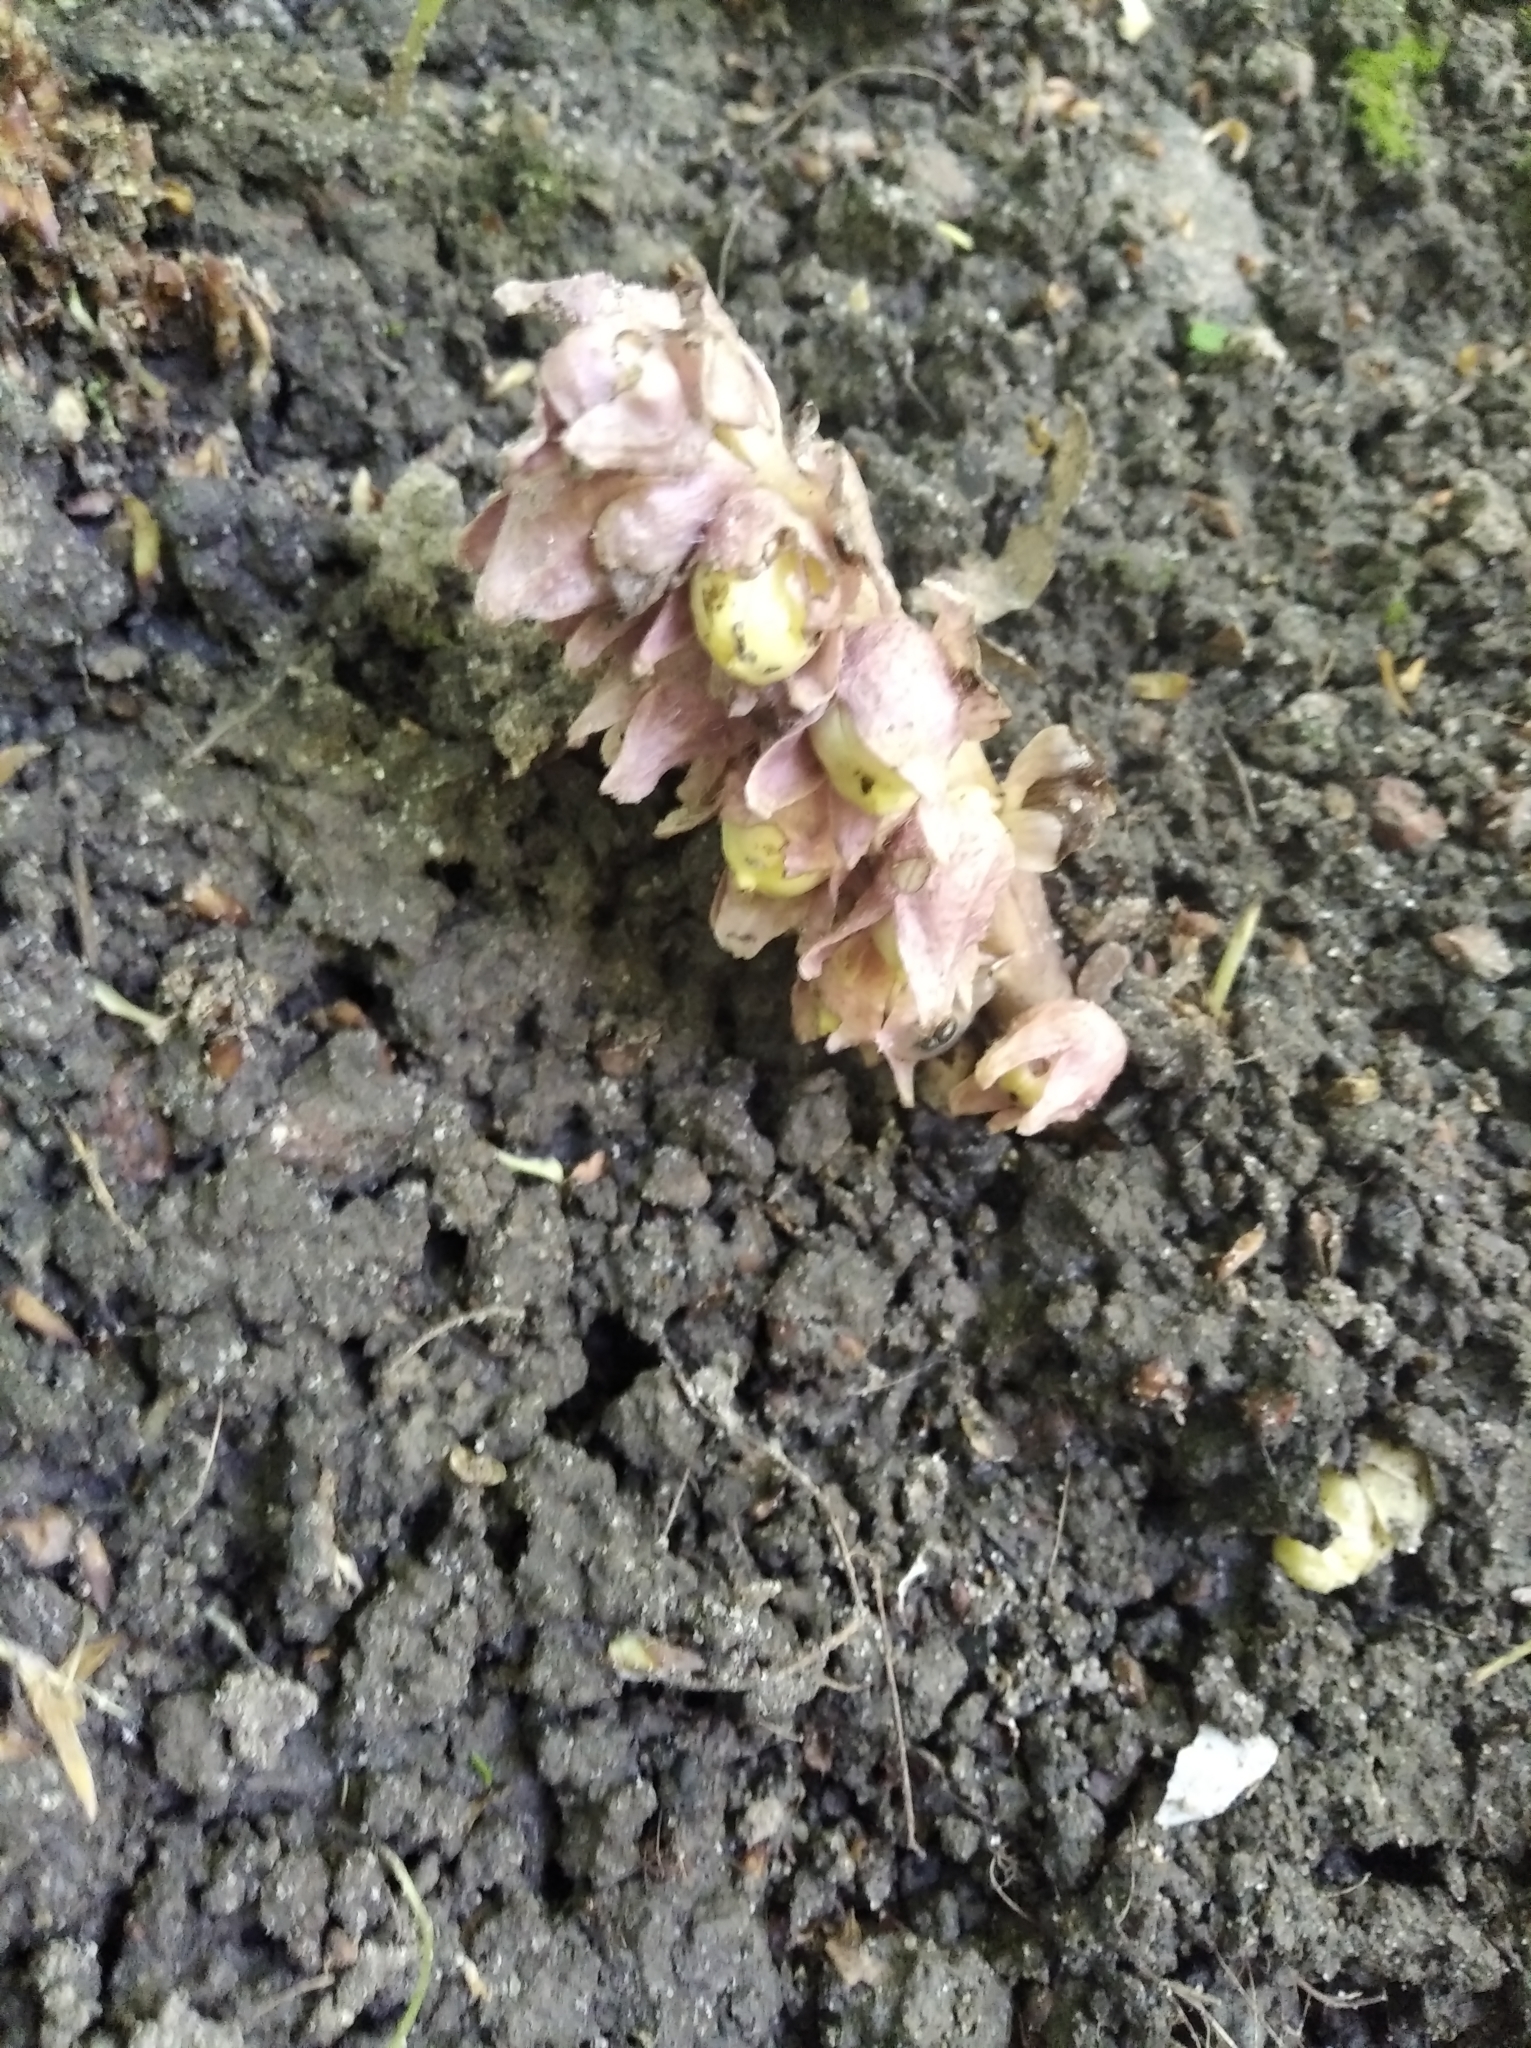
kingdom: Plantae
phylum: Tracheophyta
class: Magnoliopsida
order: Lamiales
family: Orobanchaceae
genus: Lathraea
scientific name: Lathraea squamaria
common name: Toothwort
